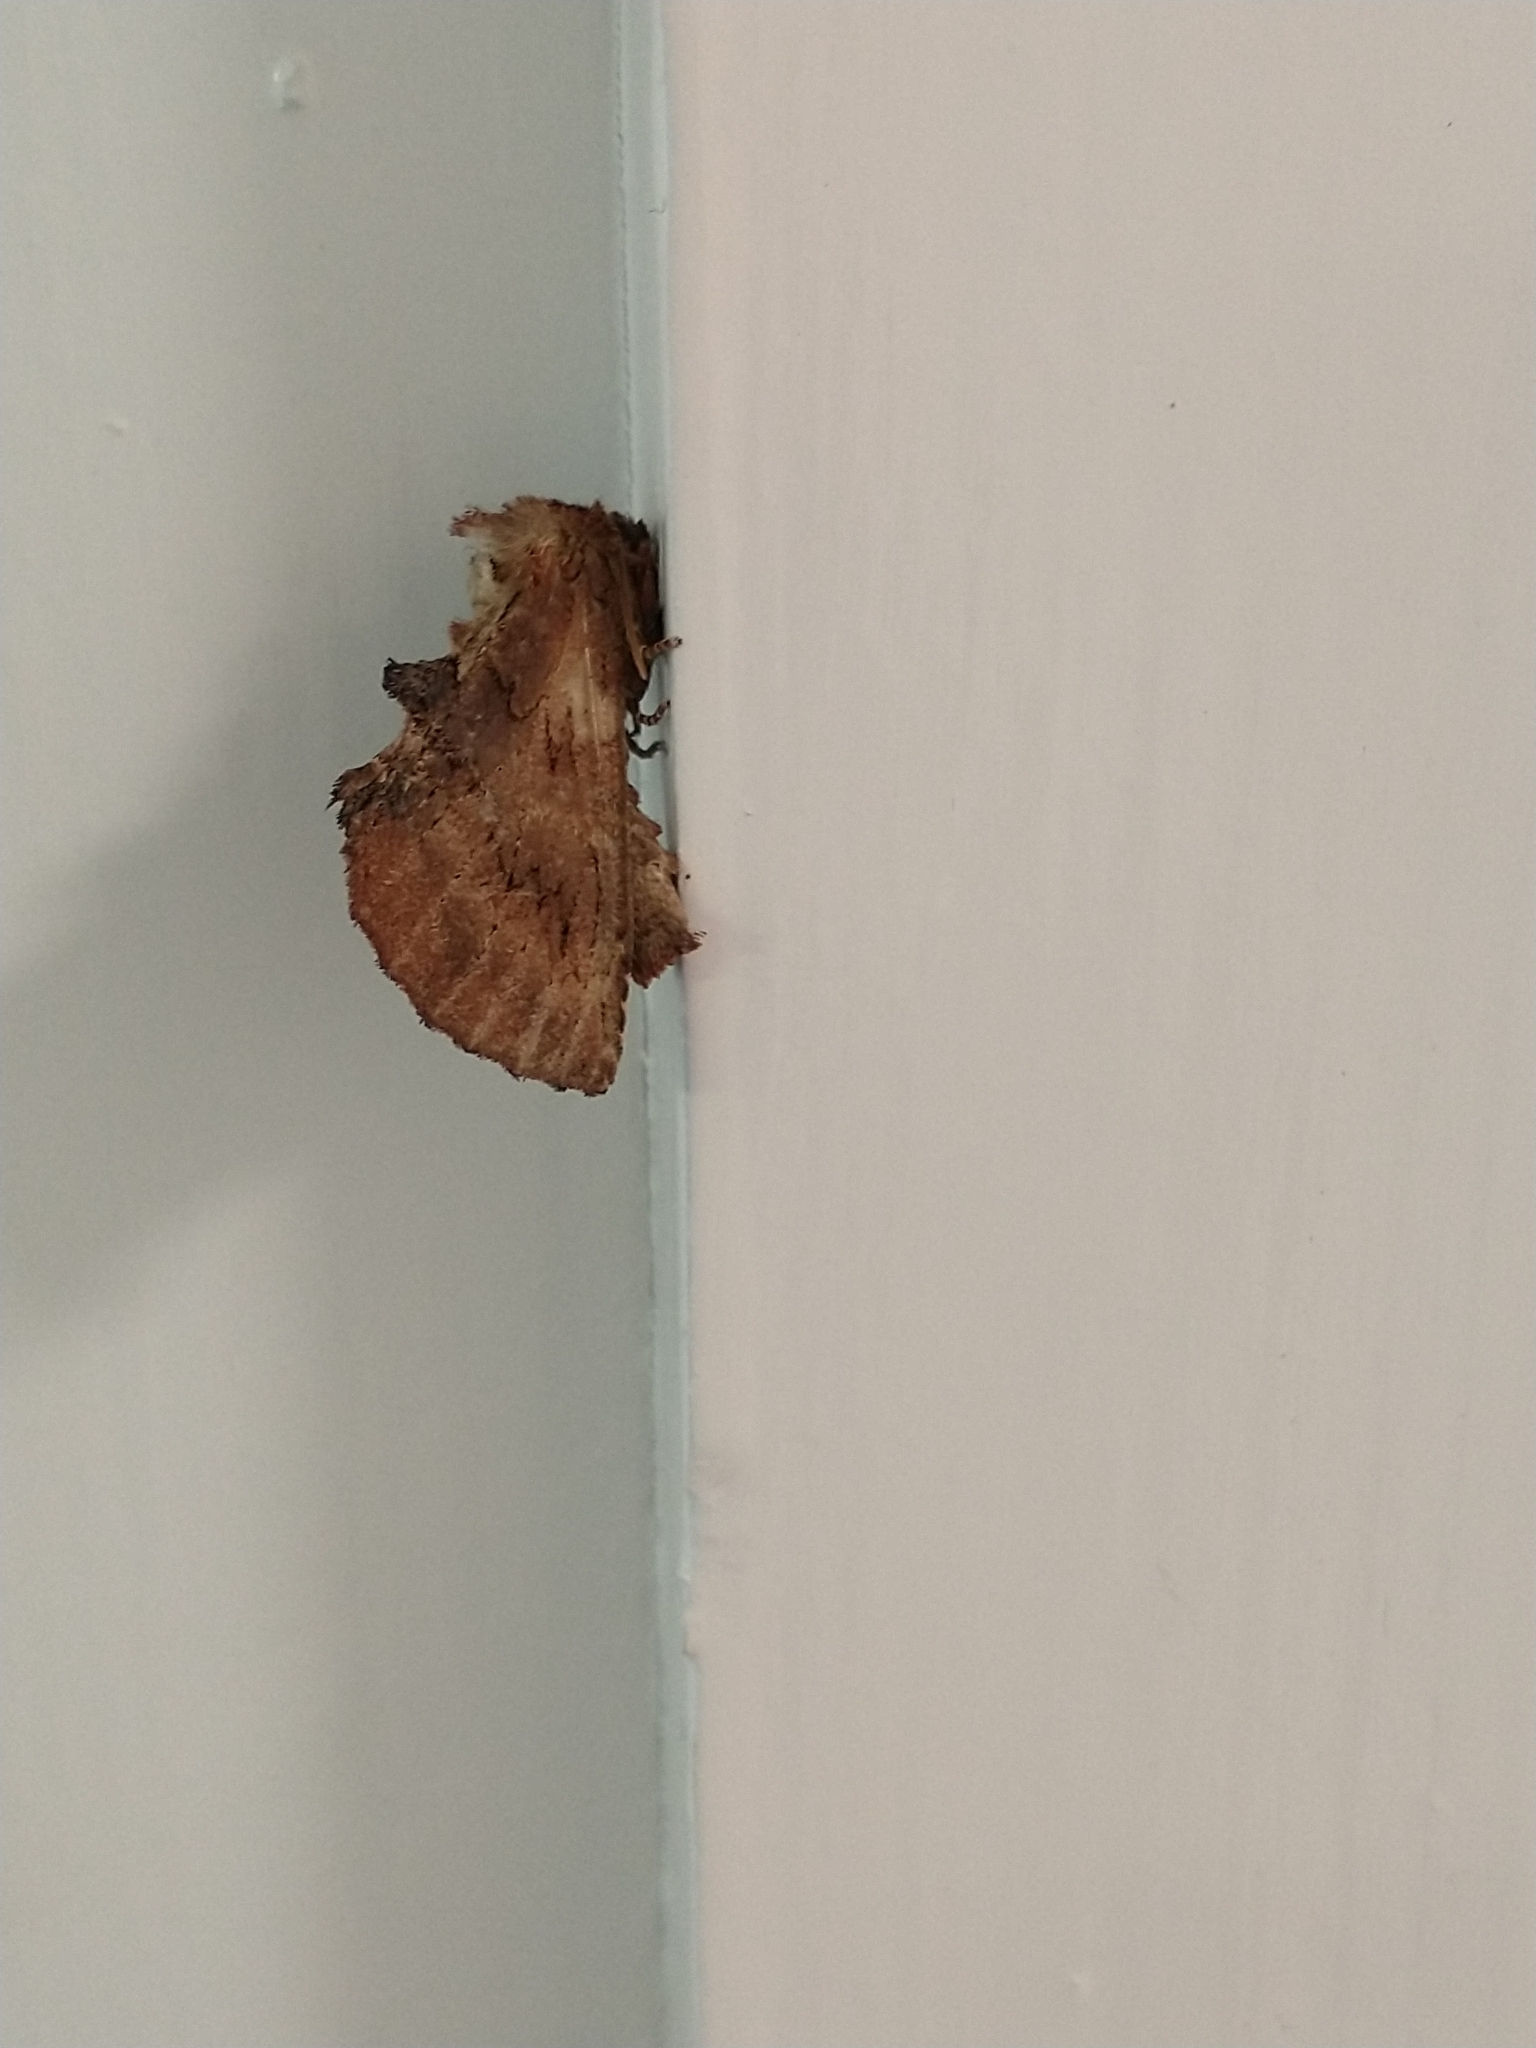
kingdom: Animalia
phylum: Arthropoda
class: Insecta
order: Lepidoptera
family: Notodontidae
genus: Ptilodon
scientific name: Ptilodon capucina
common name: Coxcomb prominent
